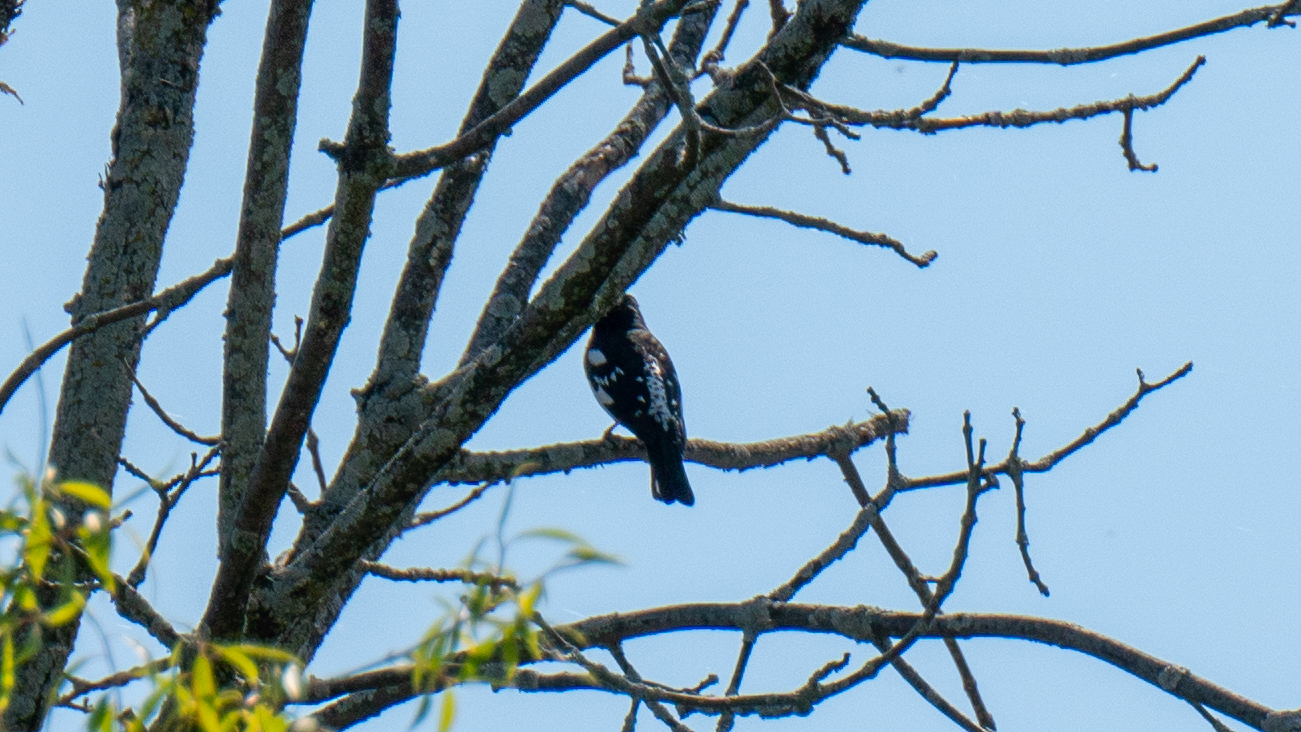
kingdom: Animalia
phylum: Chordata
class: Aves
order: Passeriformes
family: Cardinalidae
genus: Pheucticus
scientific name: Pheucticus ludovicianus
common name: Rose-breasted grosbeak
